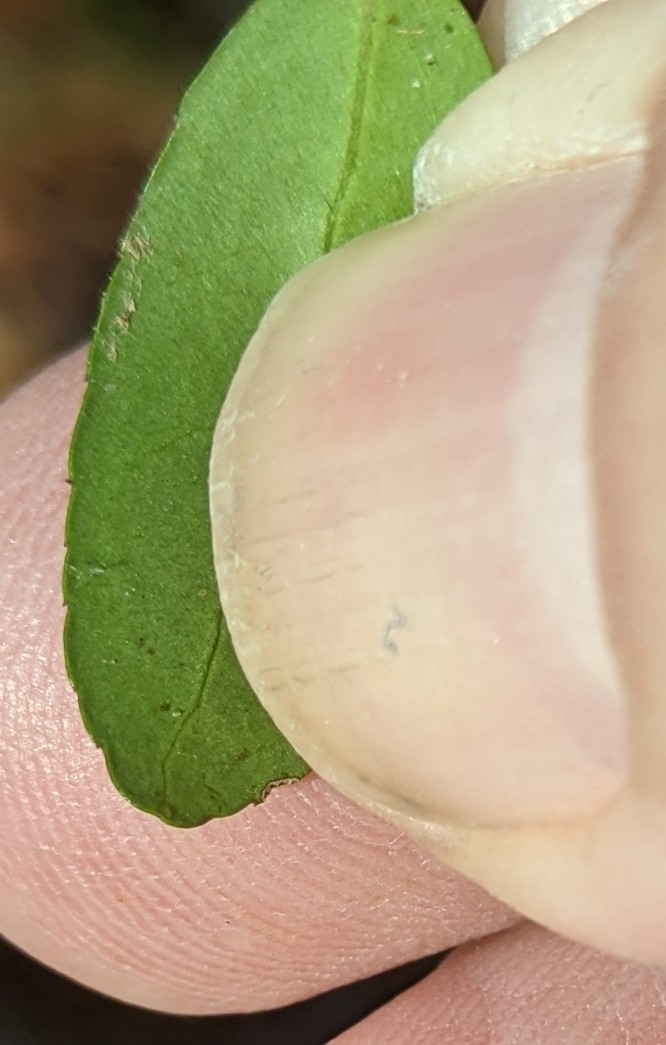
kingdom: Plantae
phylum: Tracheophyta
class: Magnoliopsida
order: Aquifoliales
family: Aquifoliaceae
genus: Ilex
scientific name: Ilex vomitoria
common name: Yaupon holly
